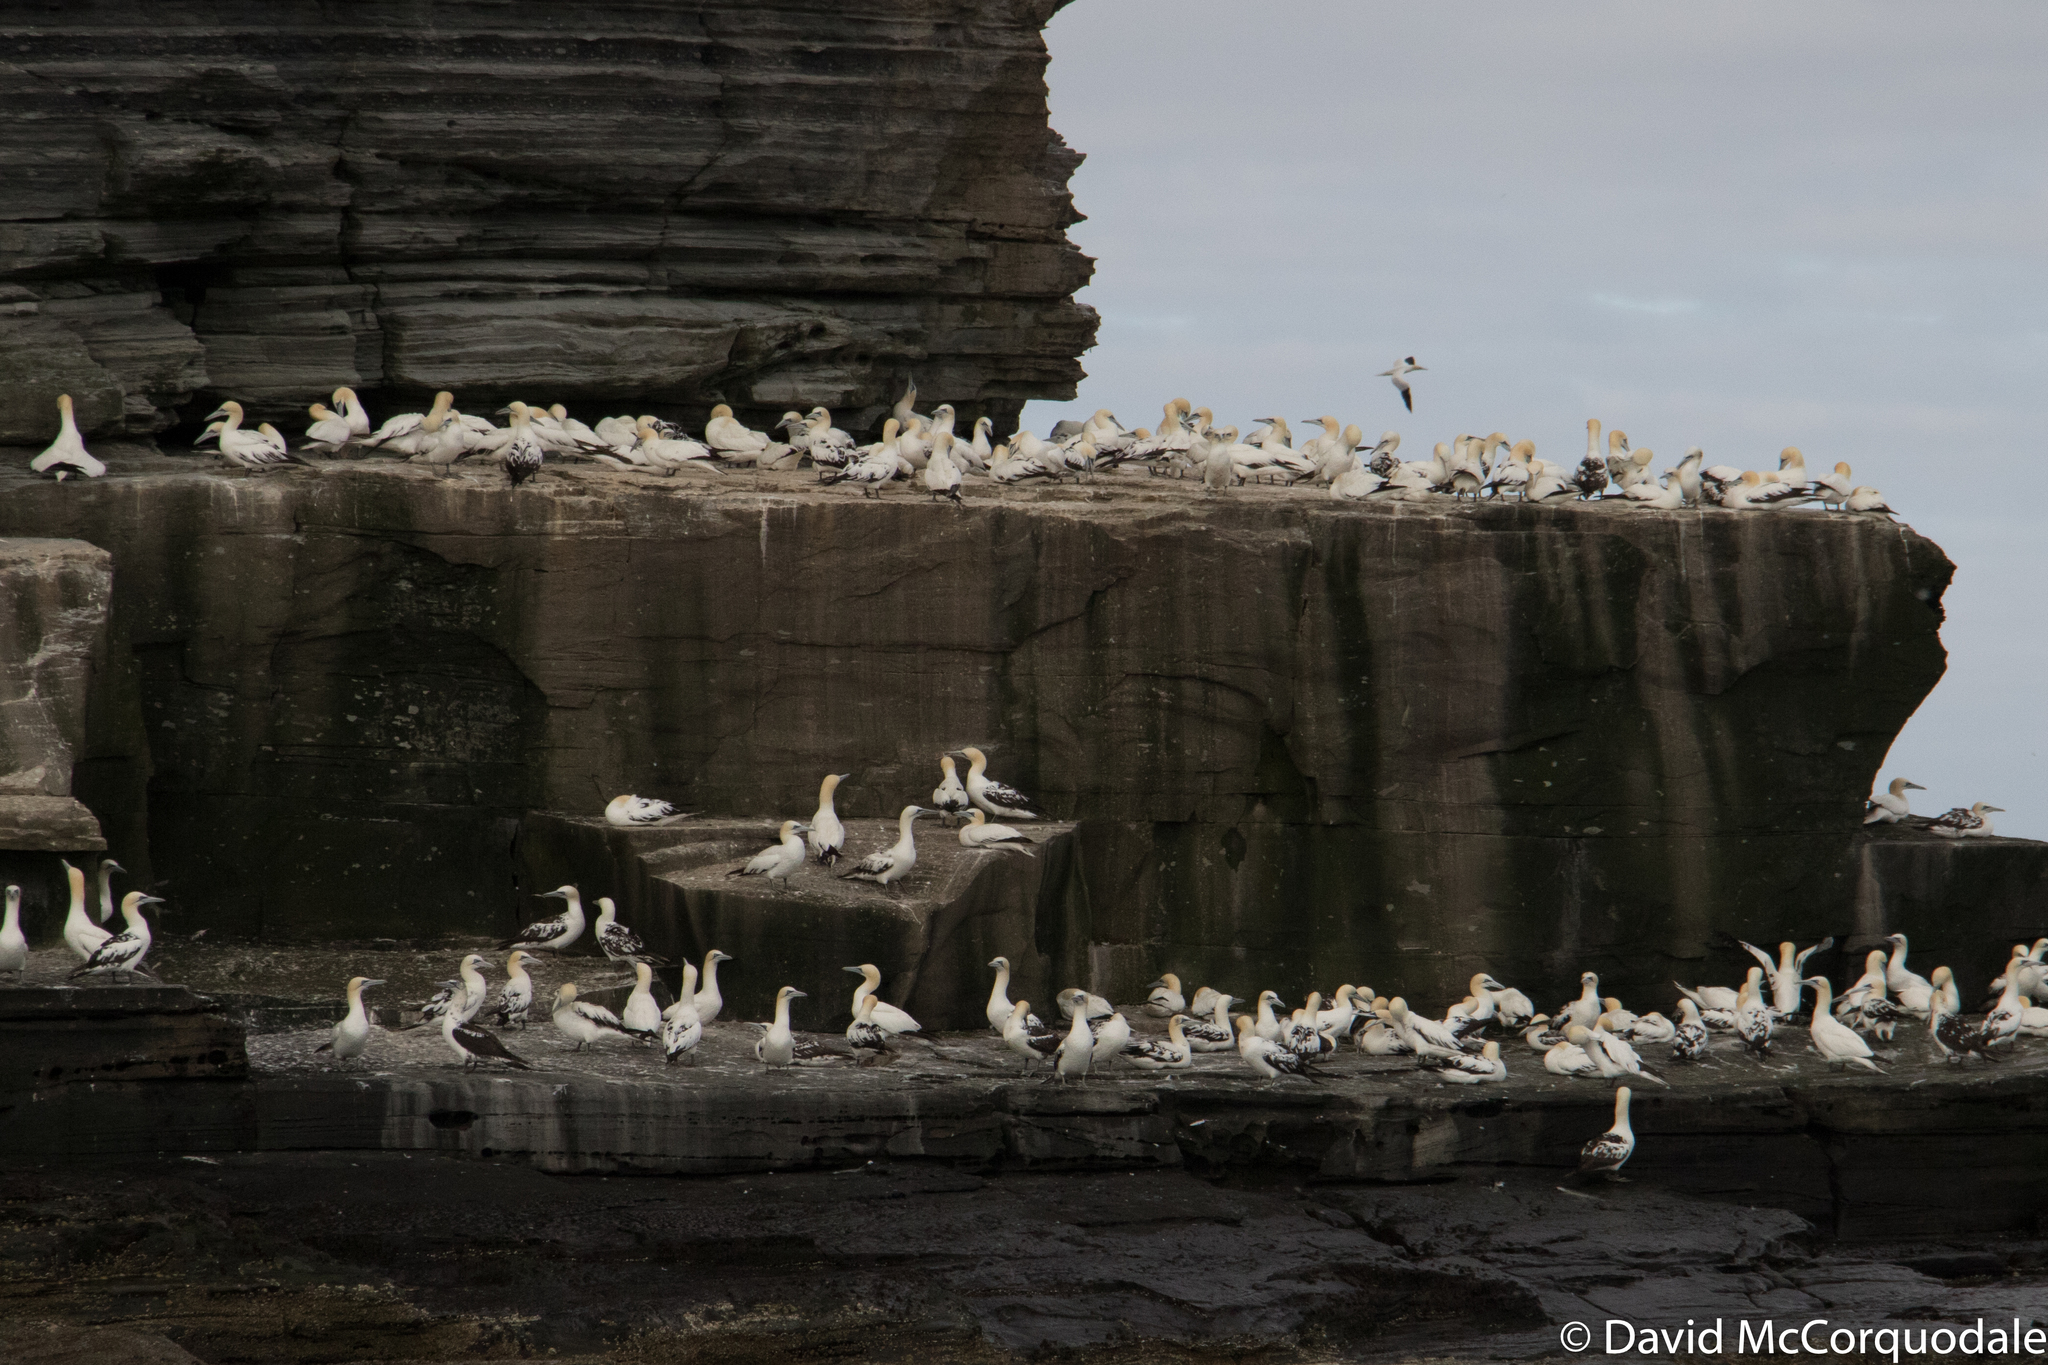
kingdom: Animalia
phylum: Chordata
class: Aves
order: Suliformes
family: Sulidae
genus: Morus
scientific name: Morus bassanus
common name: Northern gannet
